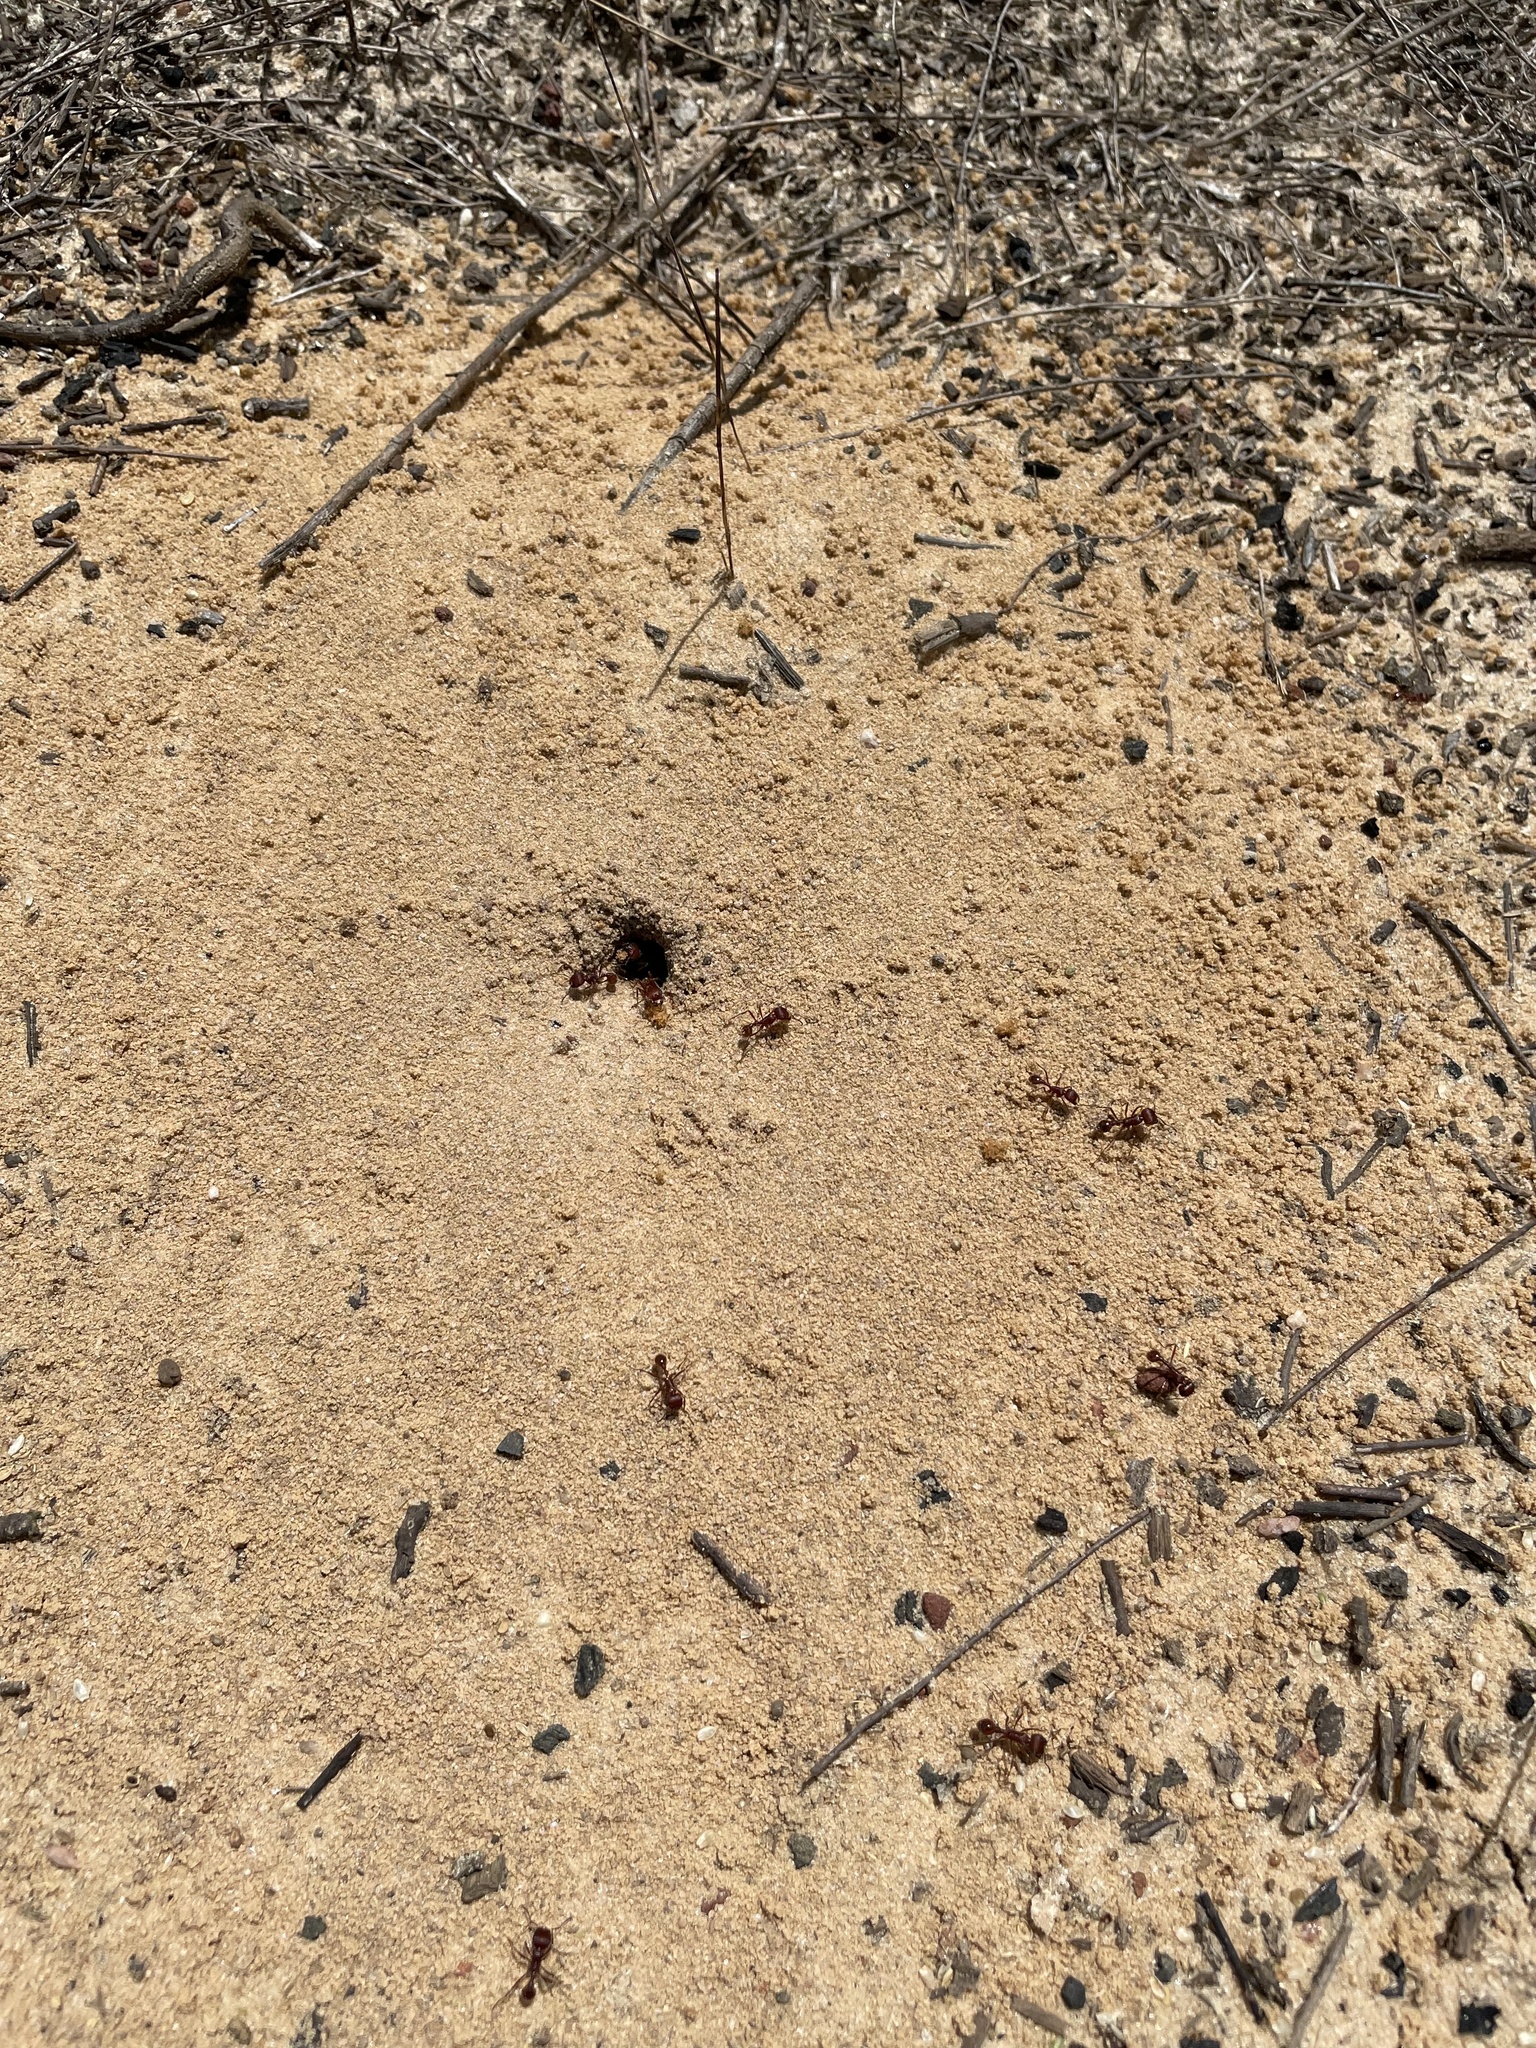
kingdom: Animalia
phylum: Arthropoda
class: Insecta
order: Hymenoptera
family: Formicidae
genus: Pogonomyrmex
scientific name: Pogonomyrmex badius
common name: Florida harvester ant
